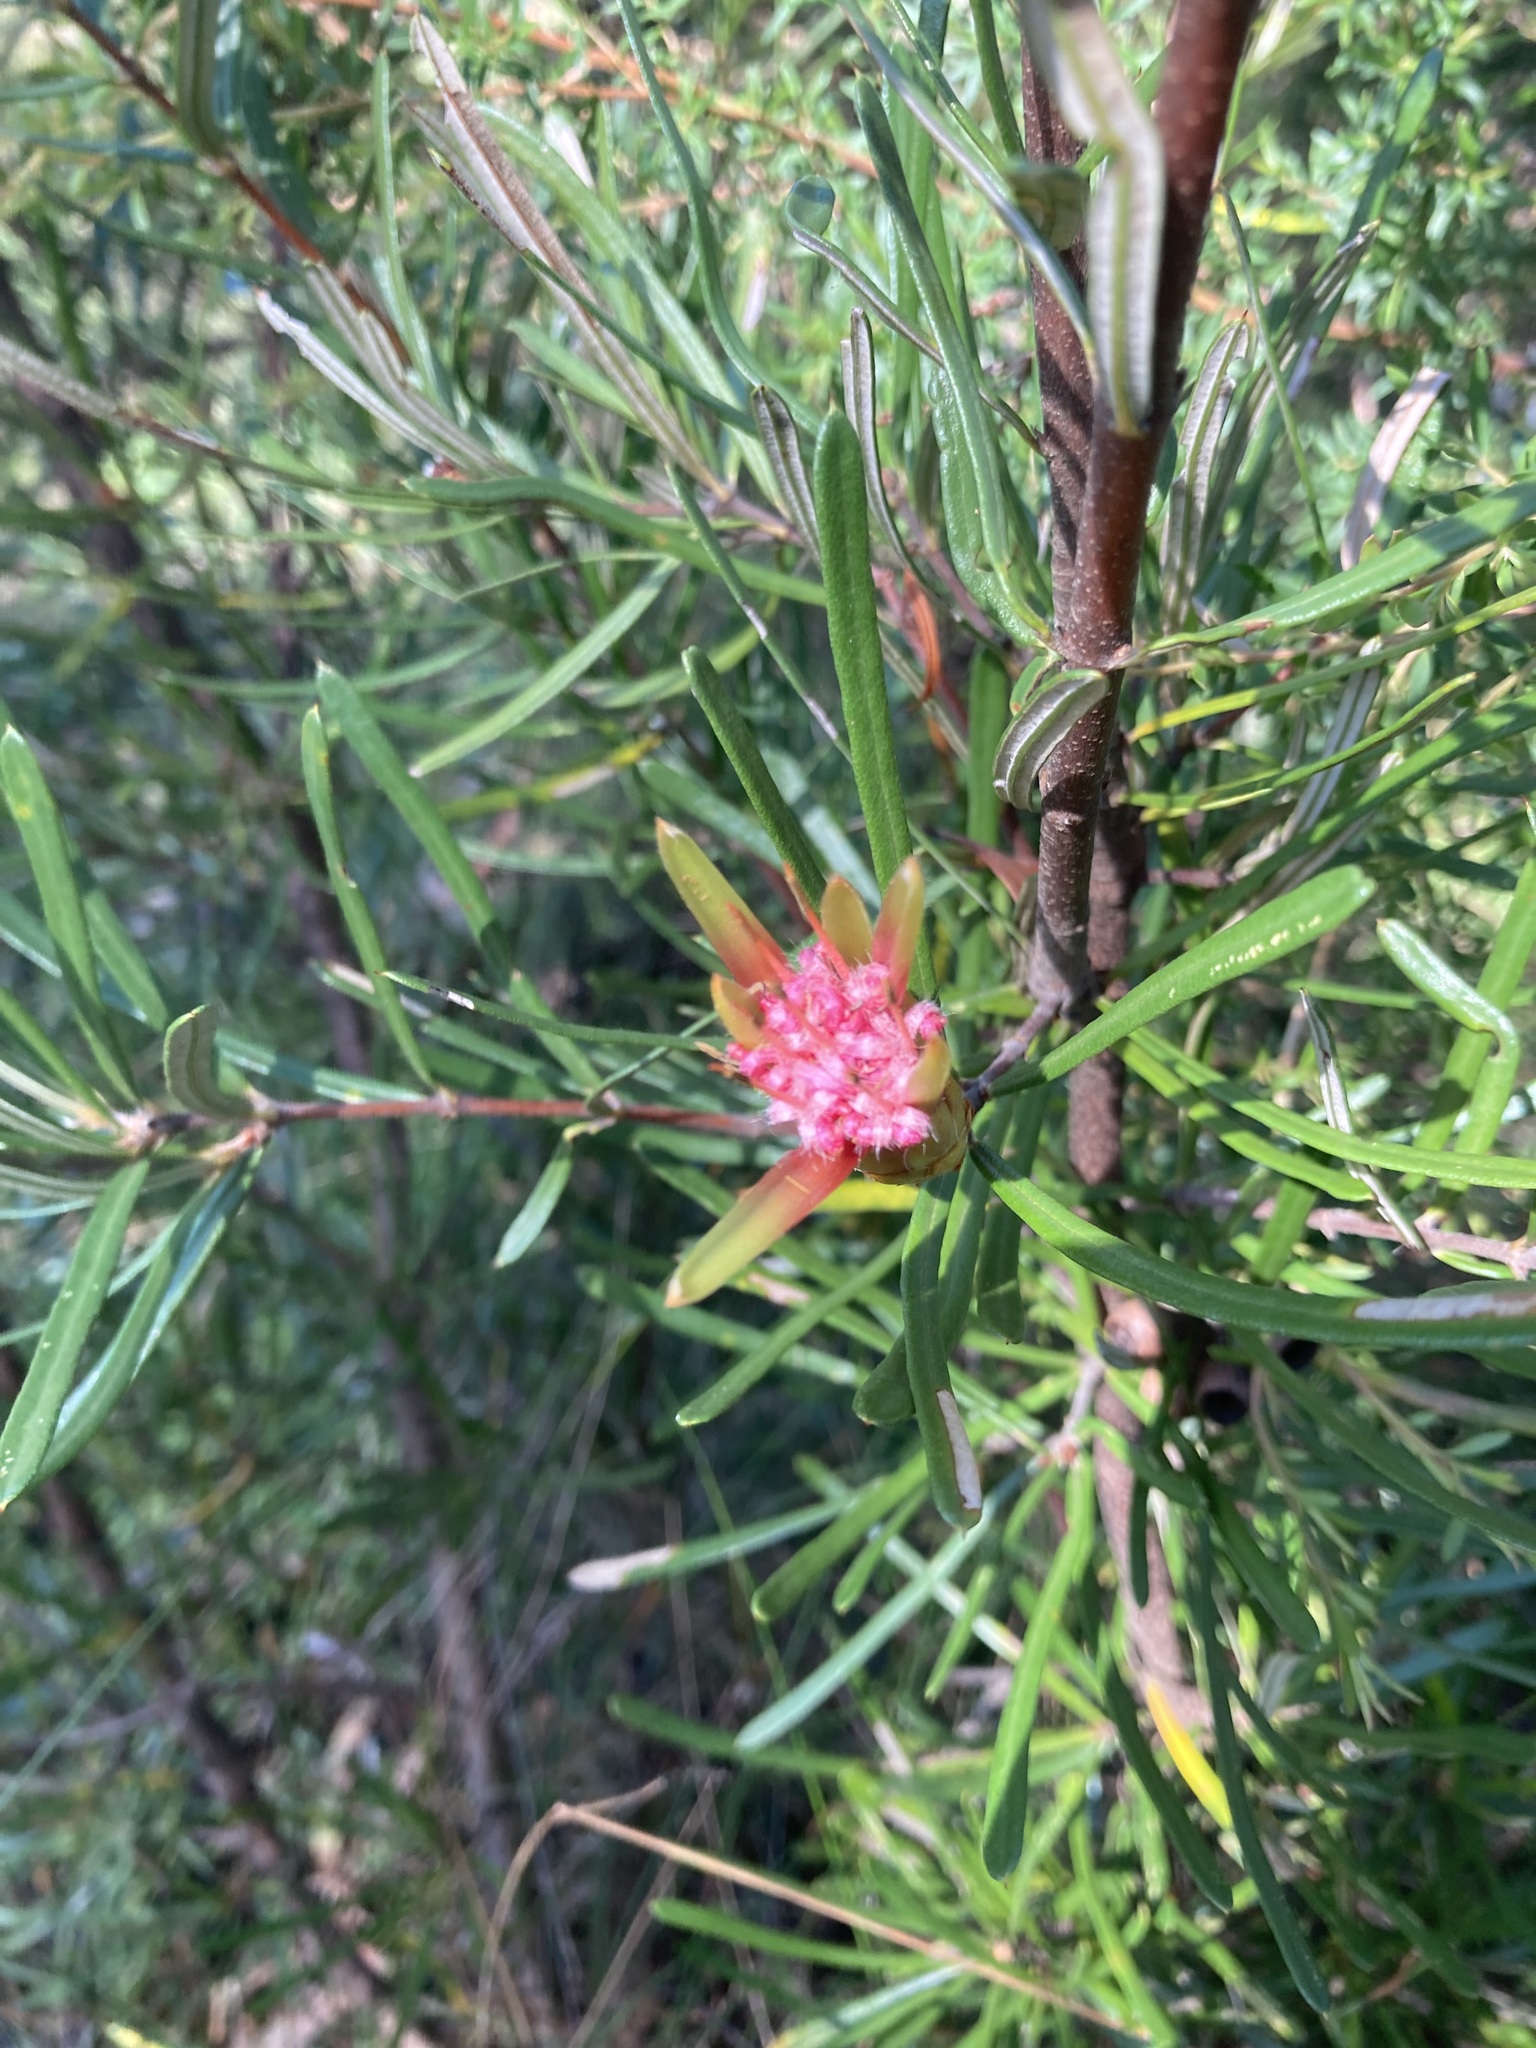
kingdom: Plantae
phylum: Tracheophyta
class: Magnoliopsida
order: Proteales
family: Proteaceae
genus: Lambertia
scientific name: Lambertia formosa
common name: Mountain-devil
